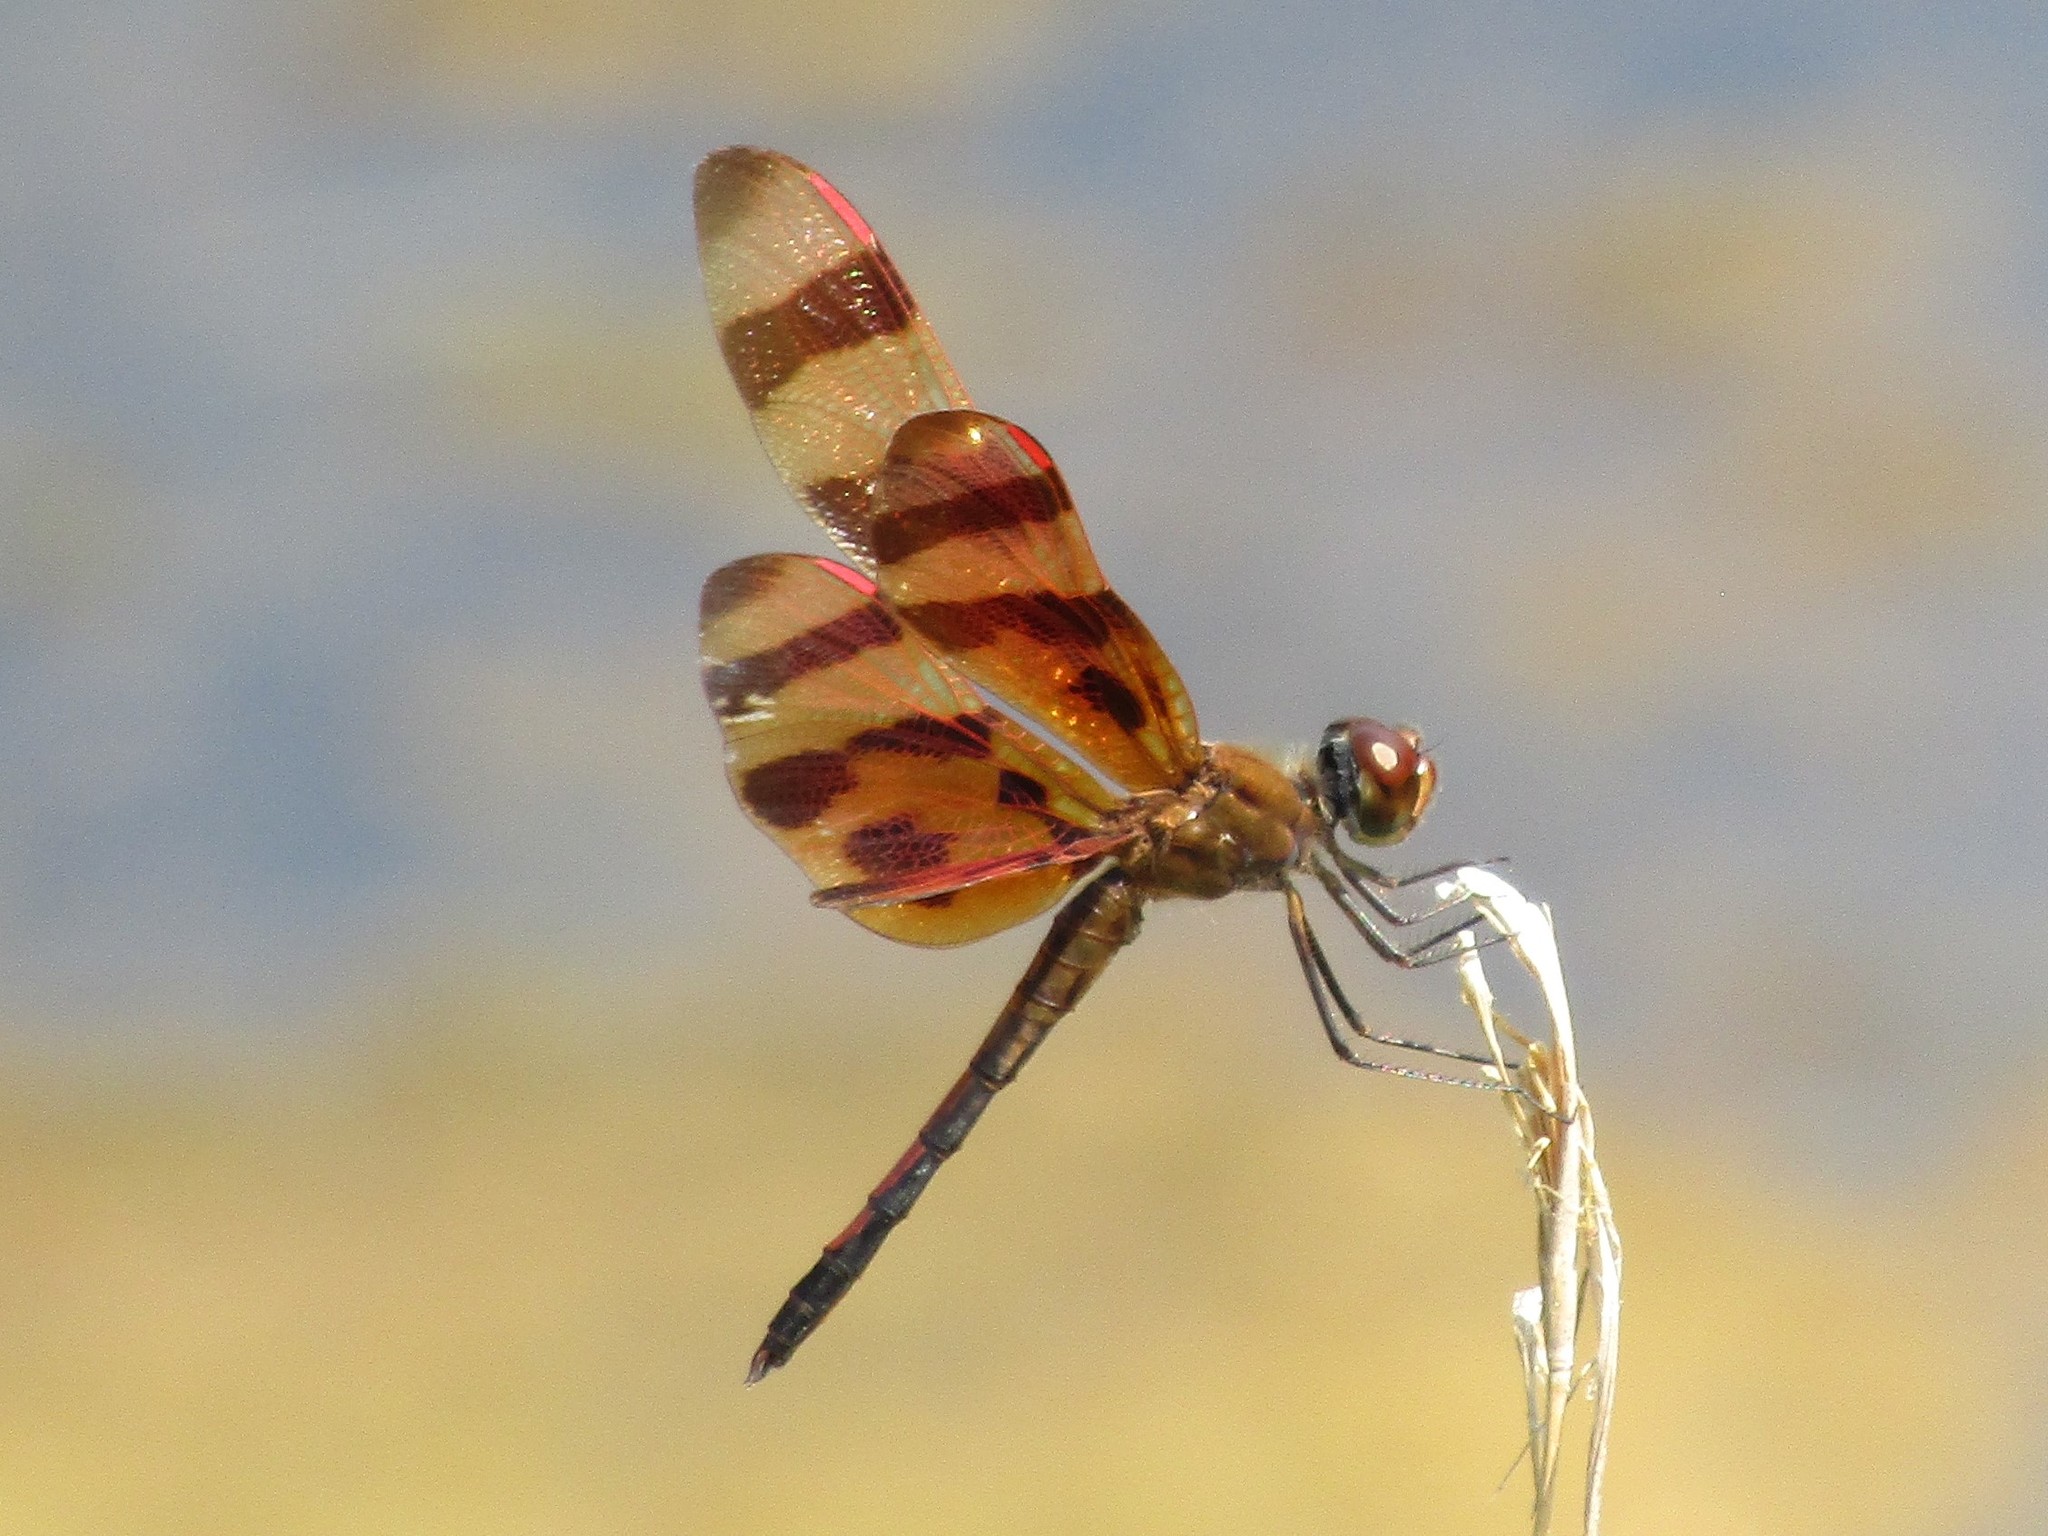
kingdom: Animalia
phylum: Arthropoda
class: Insecta
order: Odonata
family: Libellulidae
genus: Celithemis
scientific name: Celithemis eponina
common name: Halloween pennant
